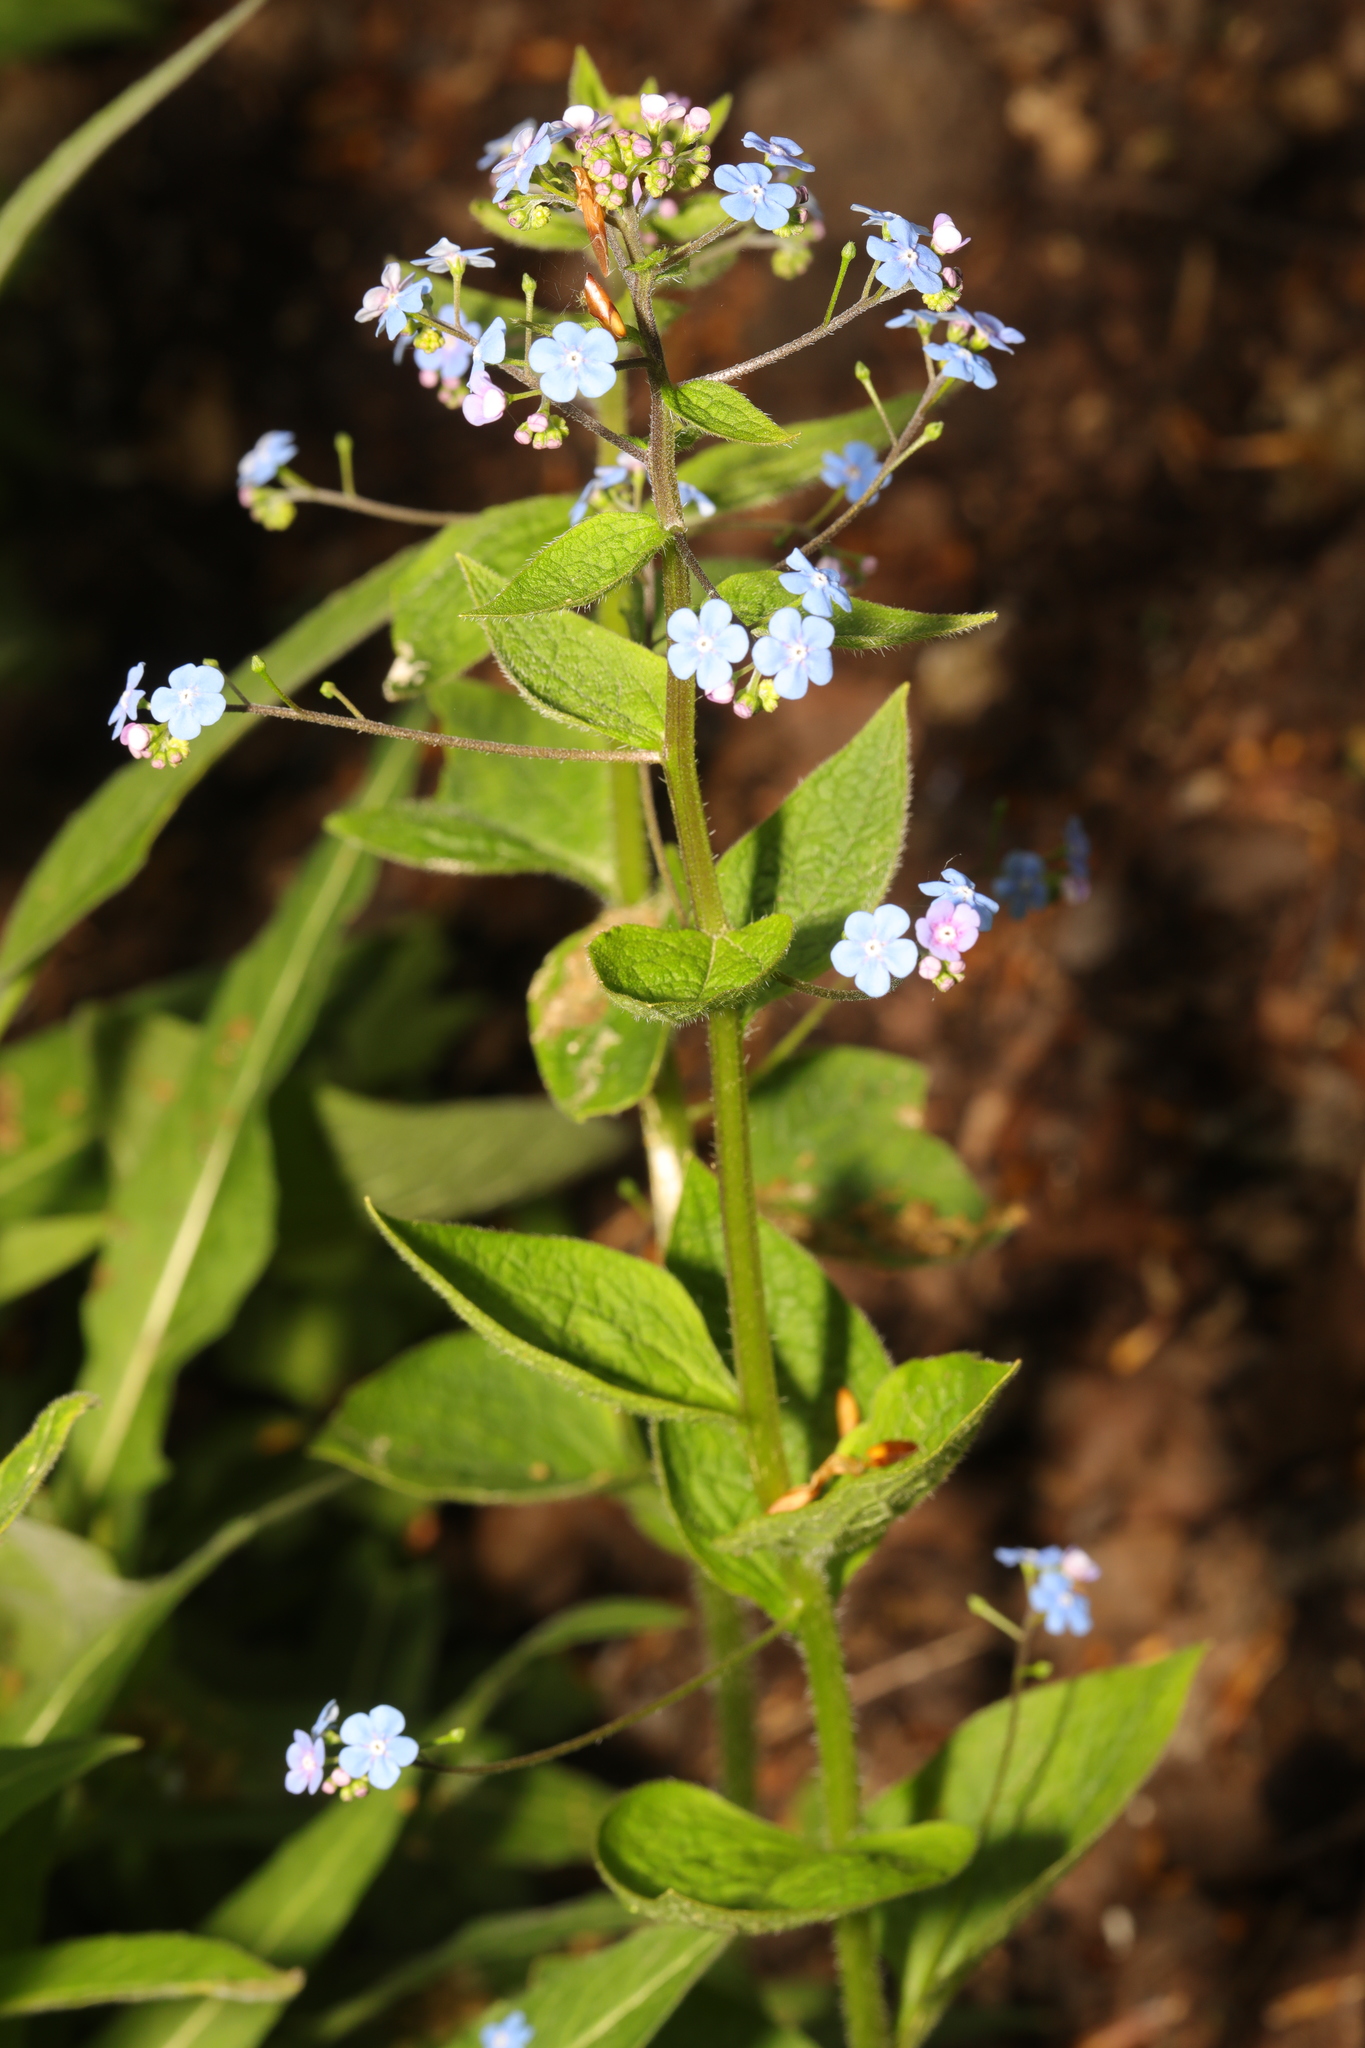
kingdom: Plantae
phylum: Tracheophyta
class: Magnoliopsida
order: Boraginales
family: Boraginaceae
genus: Brunnera
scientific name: Brunnera macrophylla
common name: Great forget-me-not
